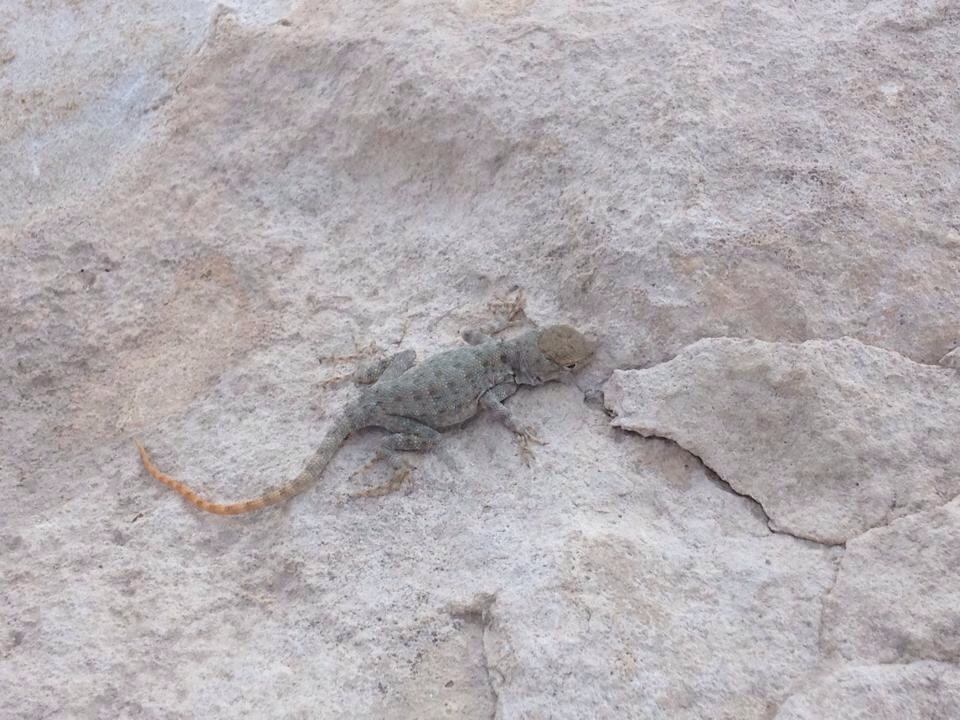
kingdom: Animalia
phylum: Chordata
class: Squamata
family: Phrynosomatidae
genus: Sceloporus
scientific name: Sceloporus merriami
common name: Canyon lizard
